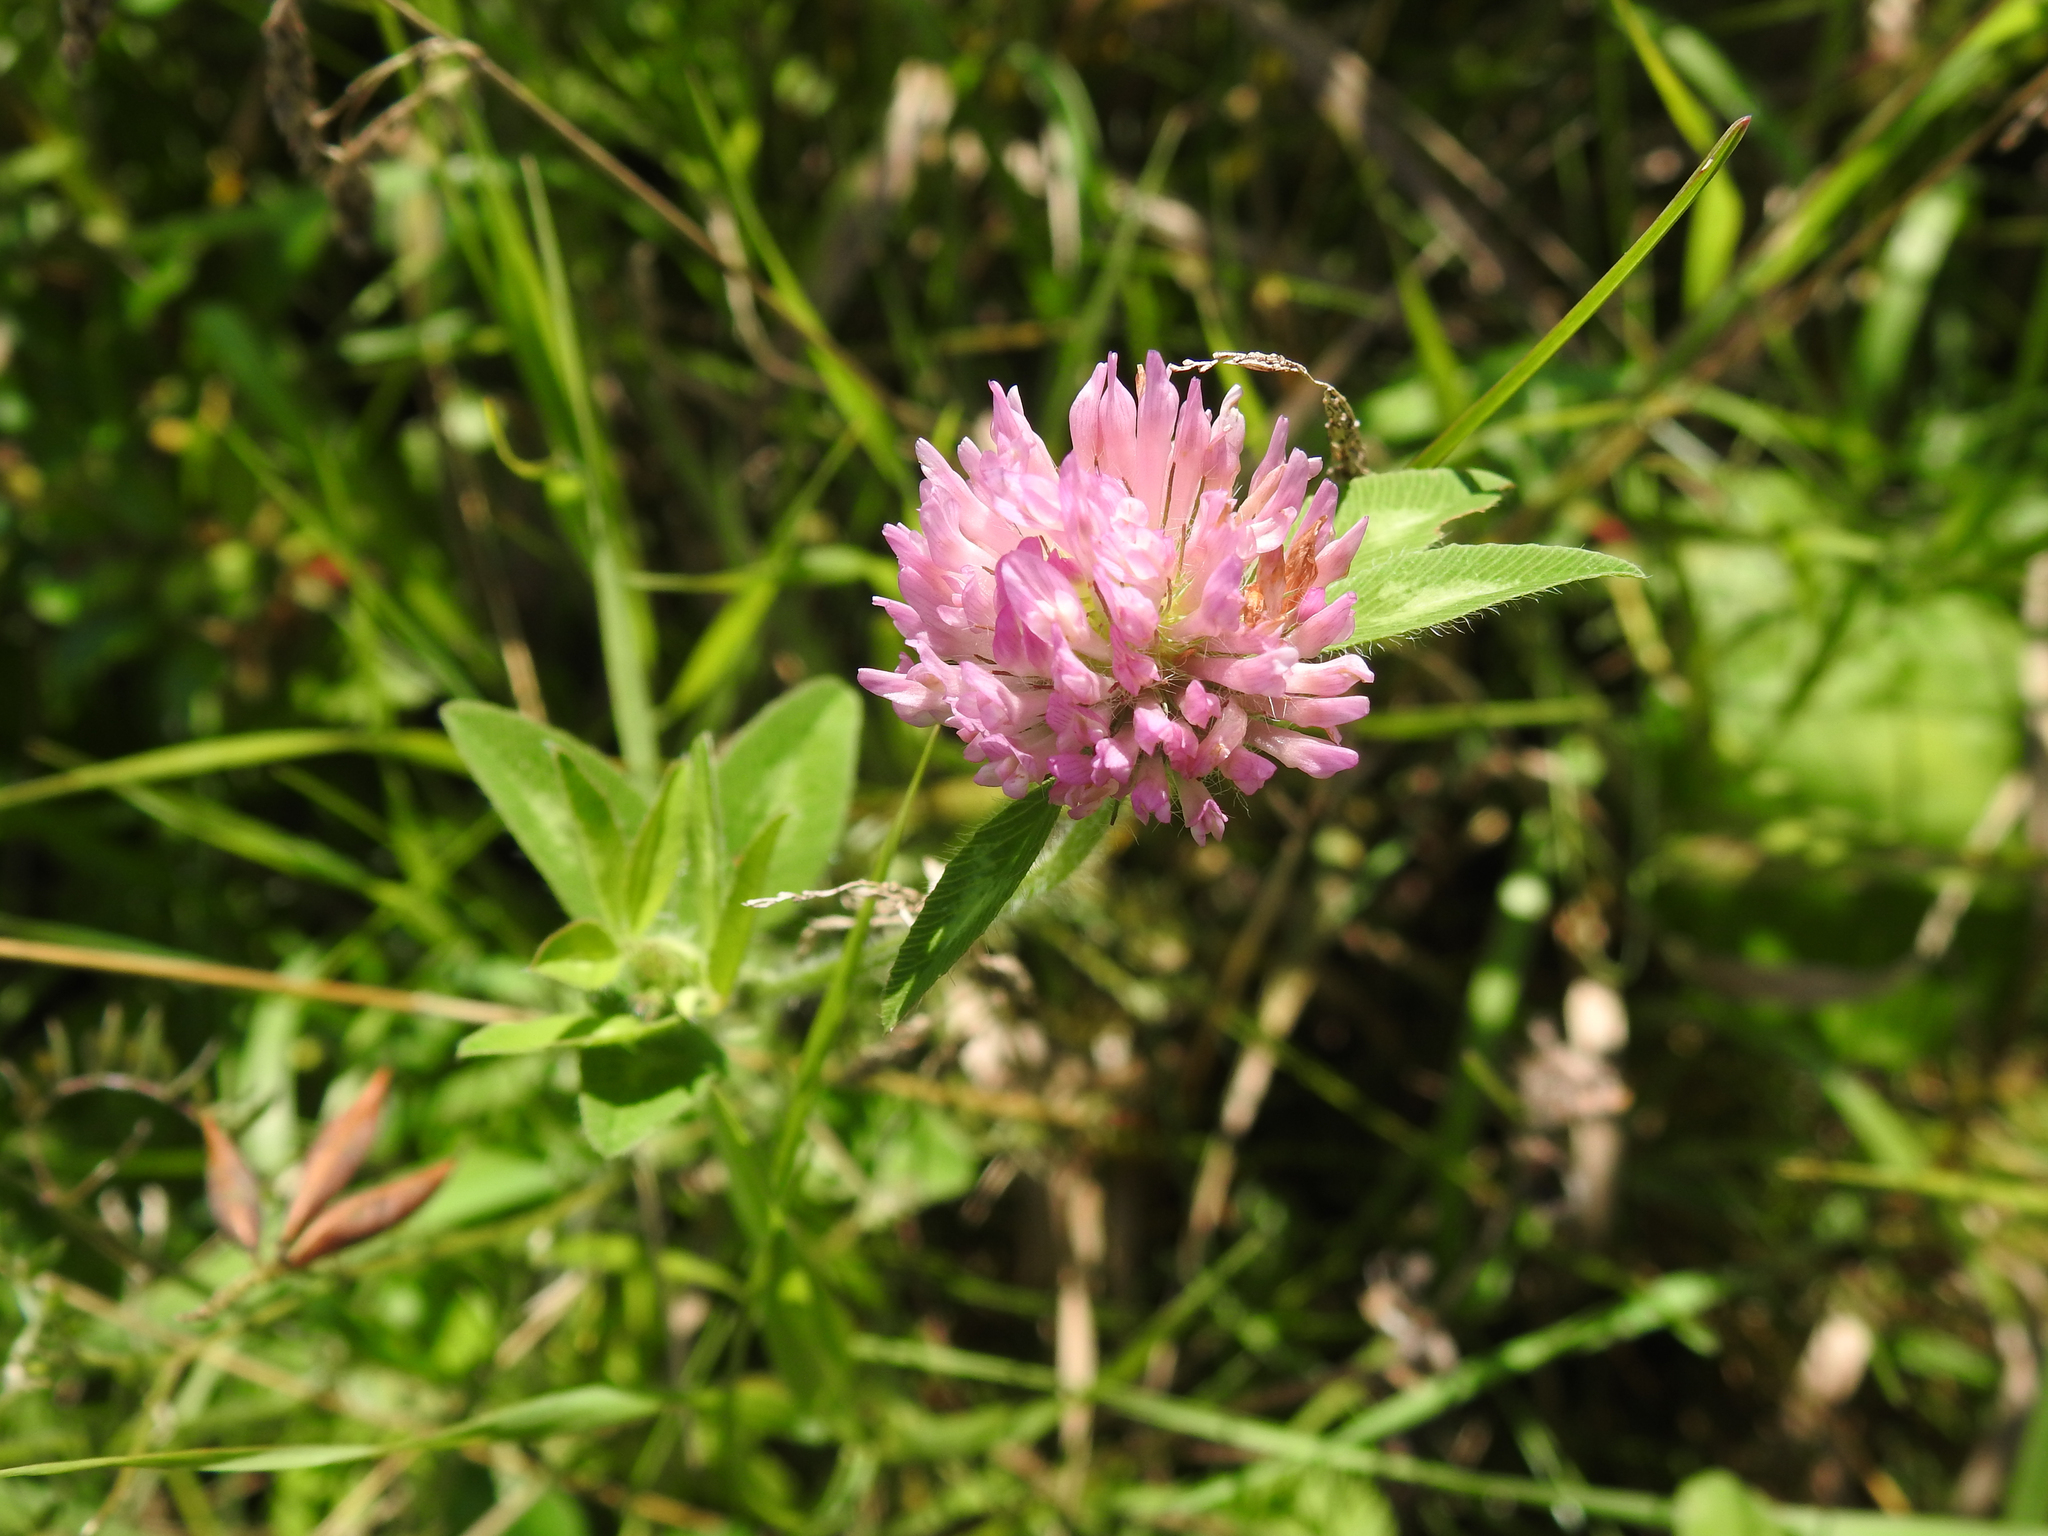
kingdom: Plantae
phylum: Tracheophyta
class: Magnoliopsida
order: Fabales
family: Fabaceae
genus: Trifolium
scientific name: Trifolium pratense
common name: Red clover
